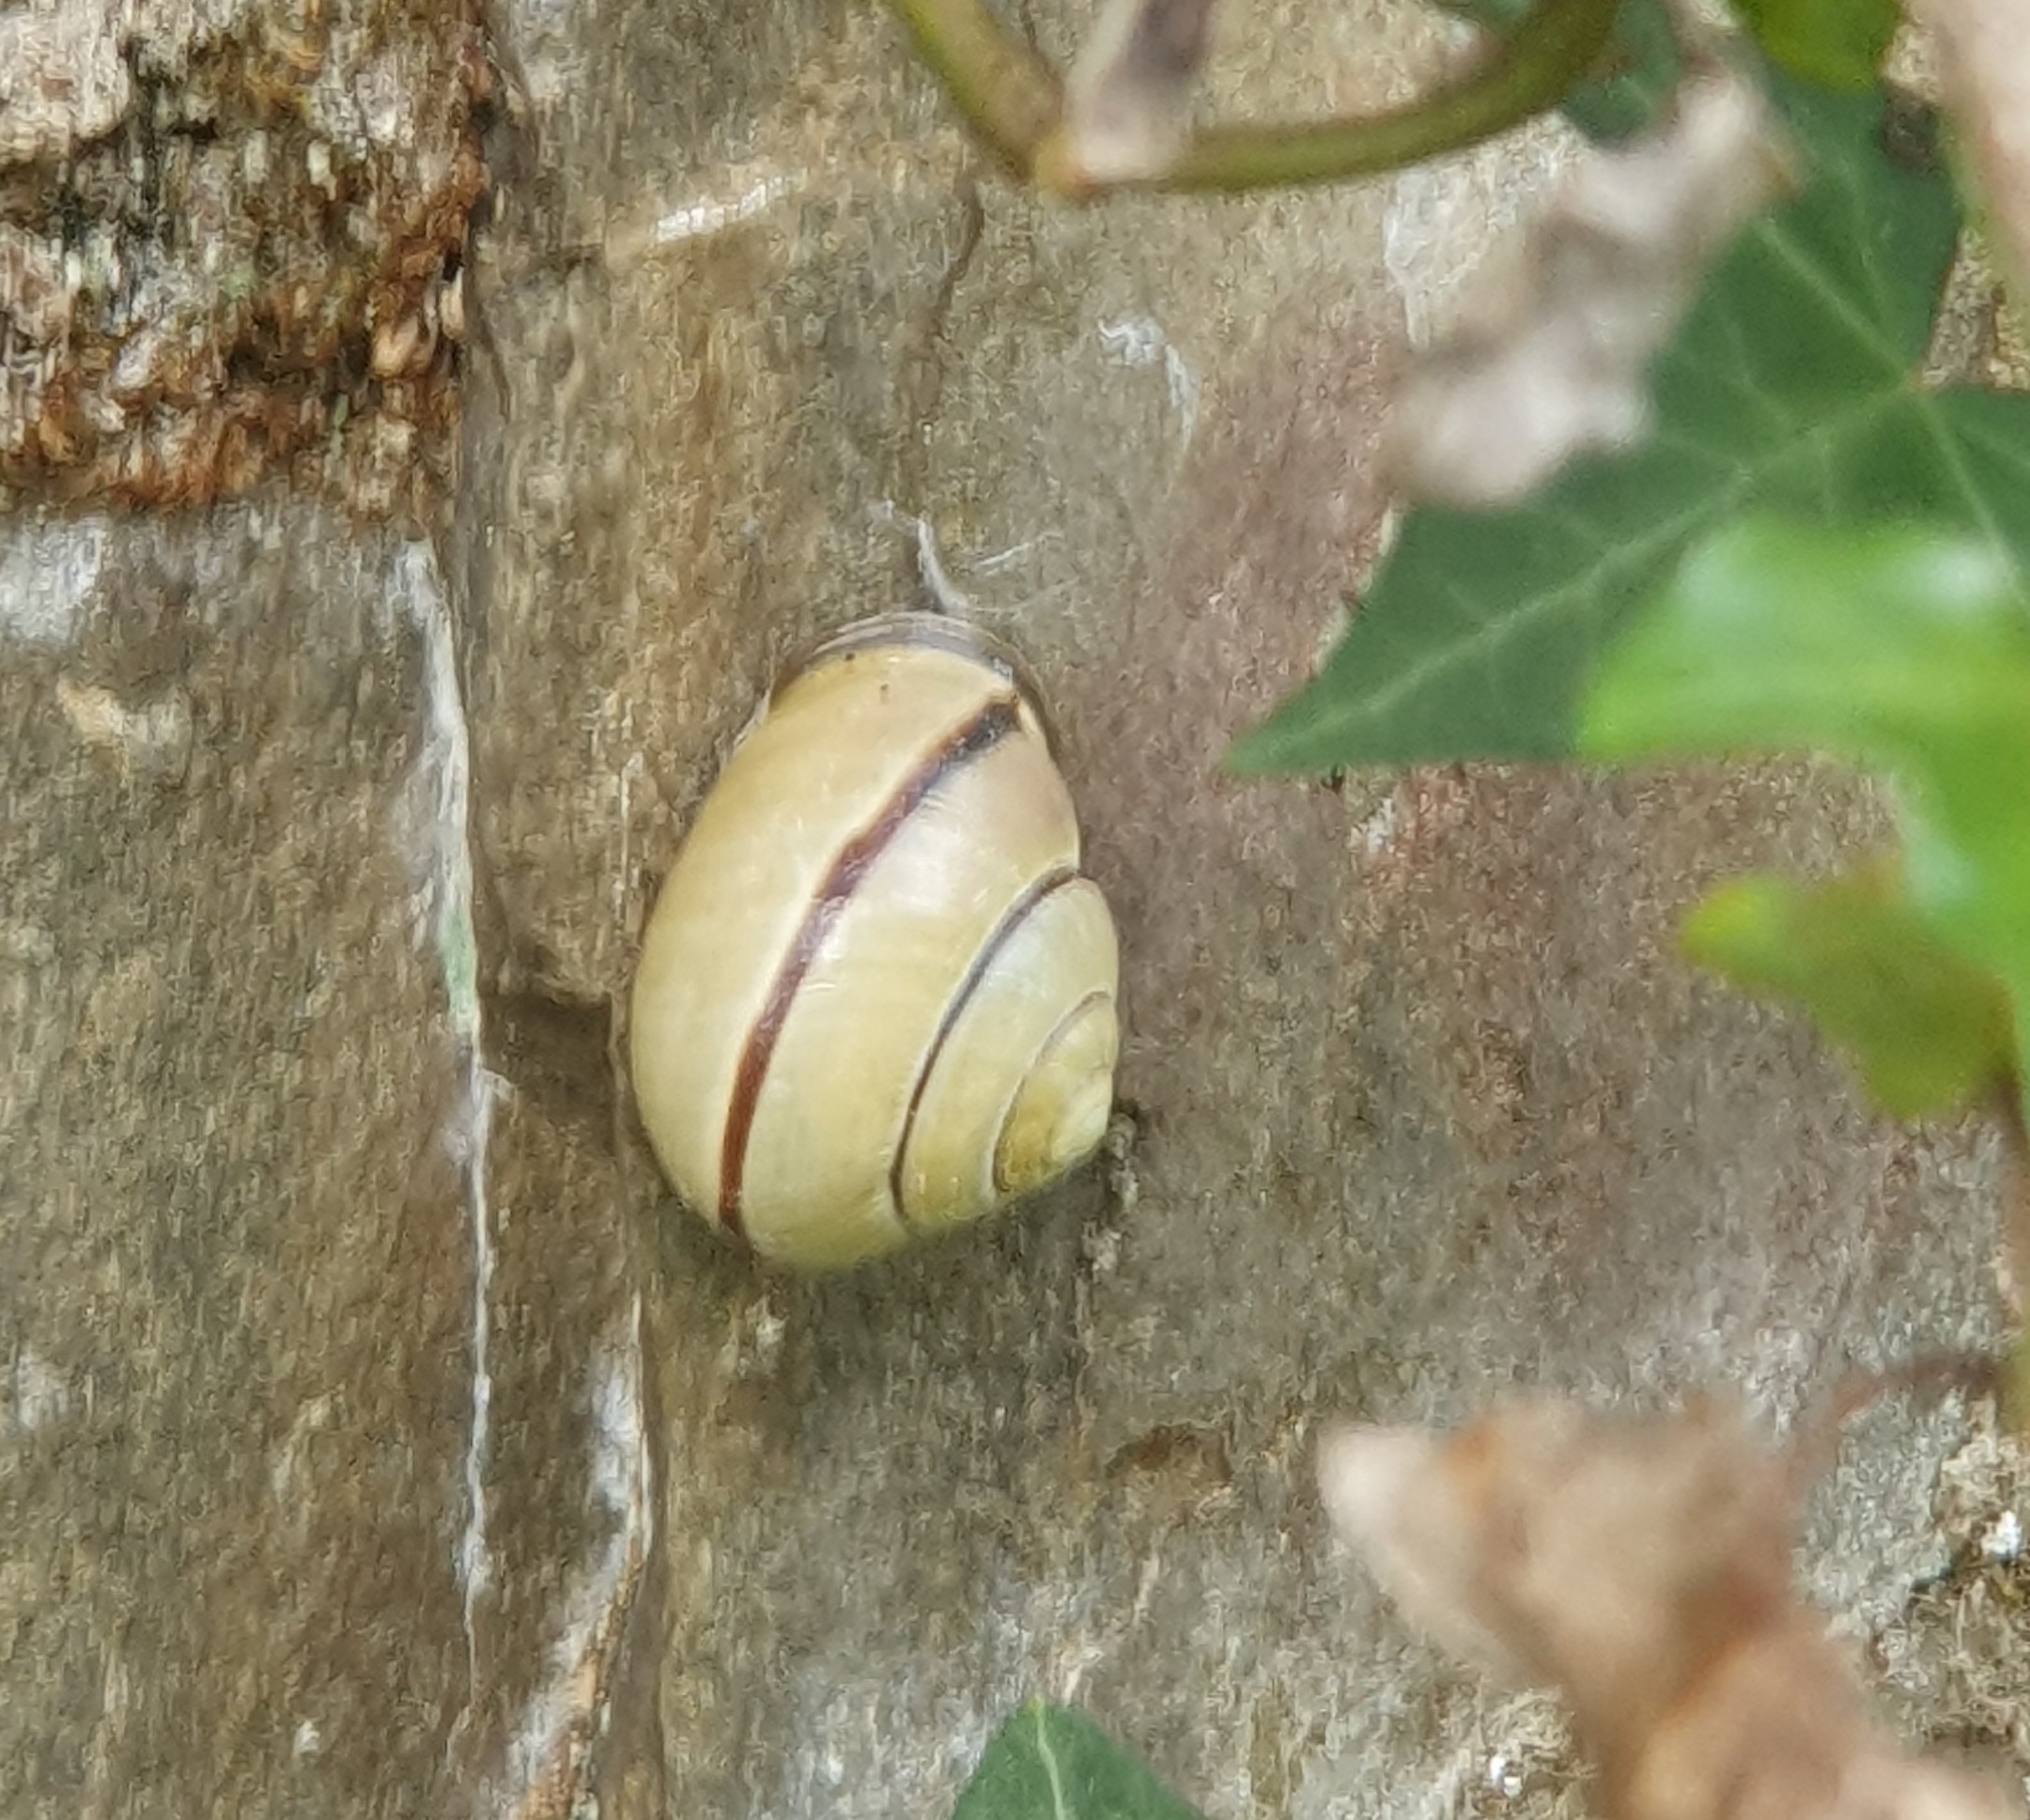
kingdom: Animalia
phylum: Mollusca
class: Gastropoda
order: Stylommatophora
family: Helicidae
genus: Cepaea
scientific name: Cepaea nemoralis
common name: Grovesnail
